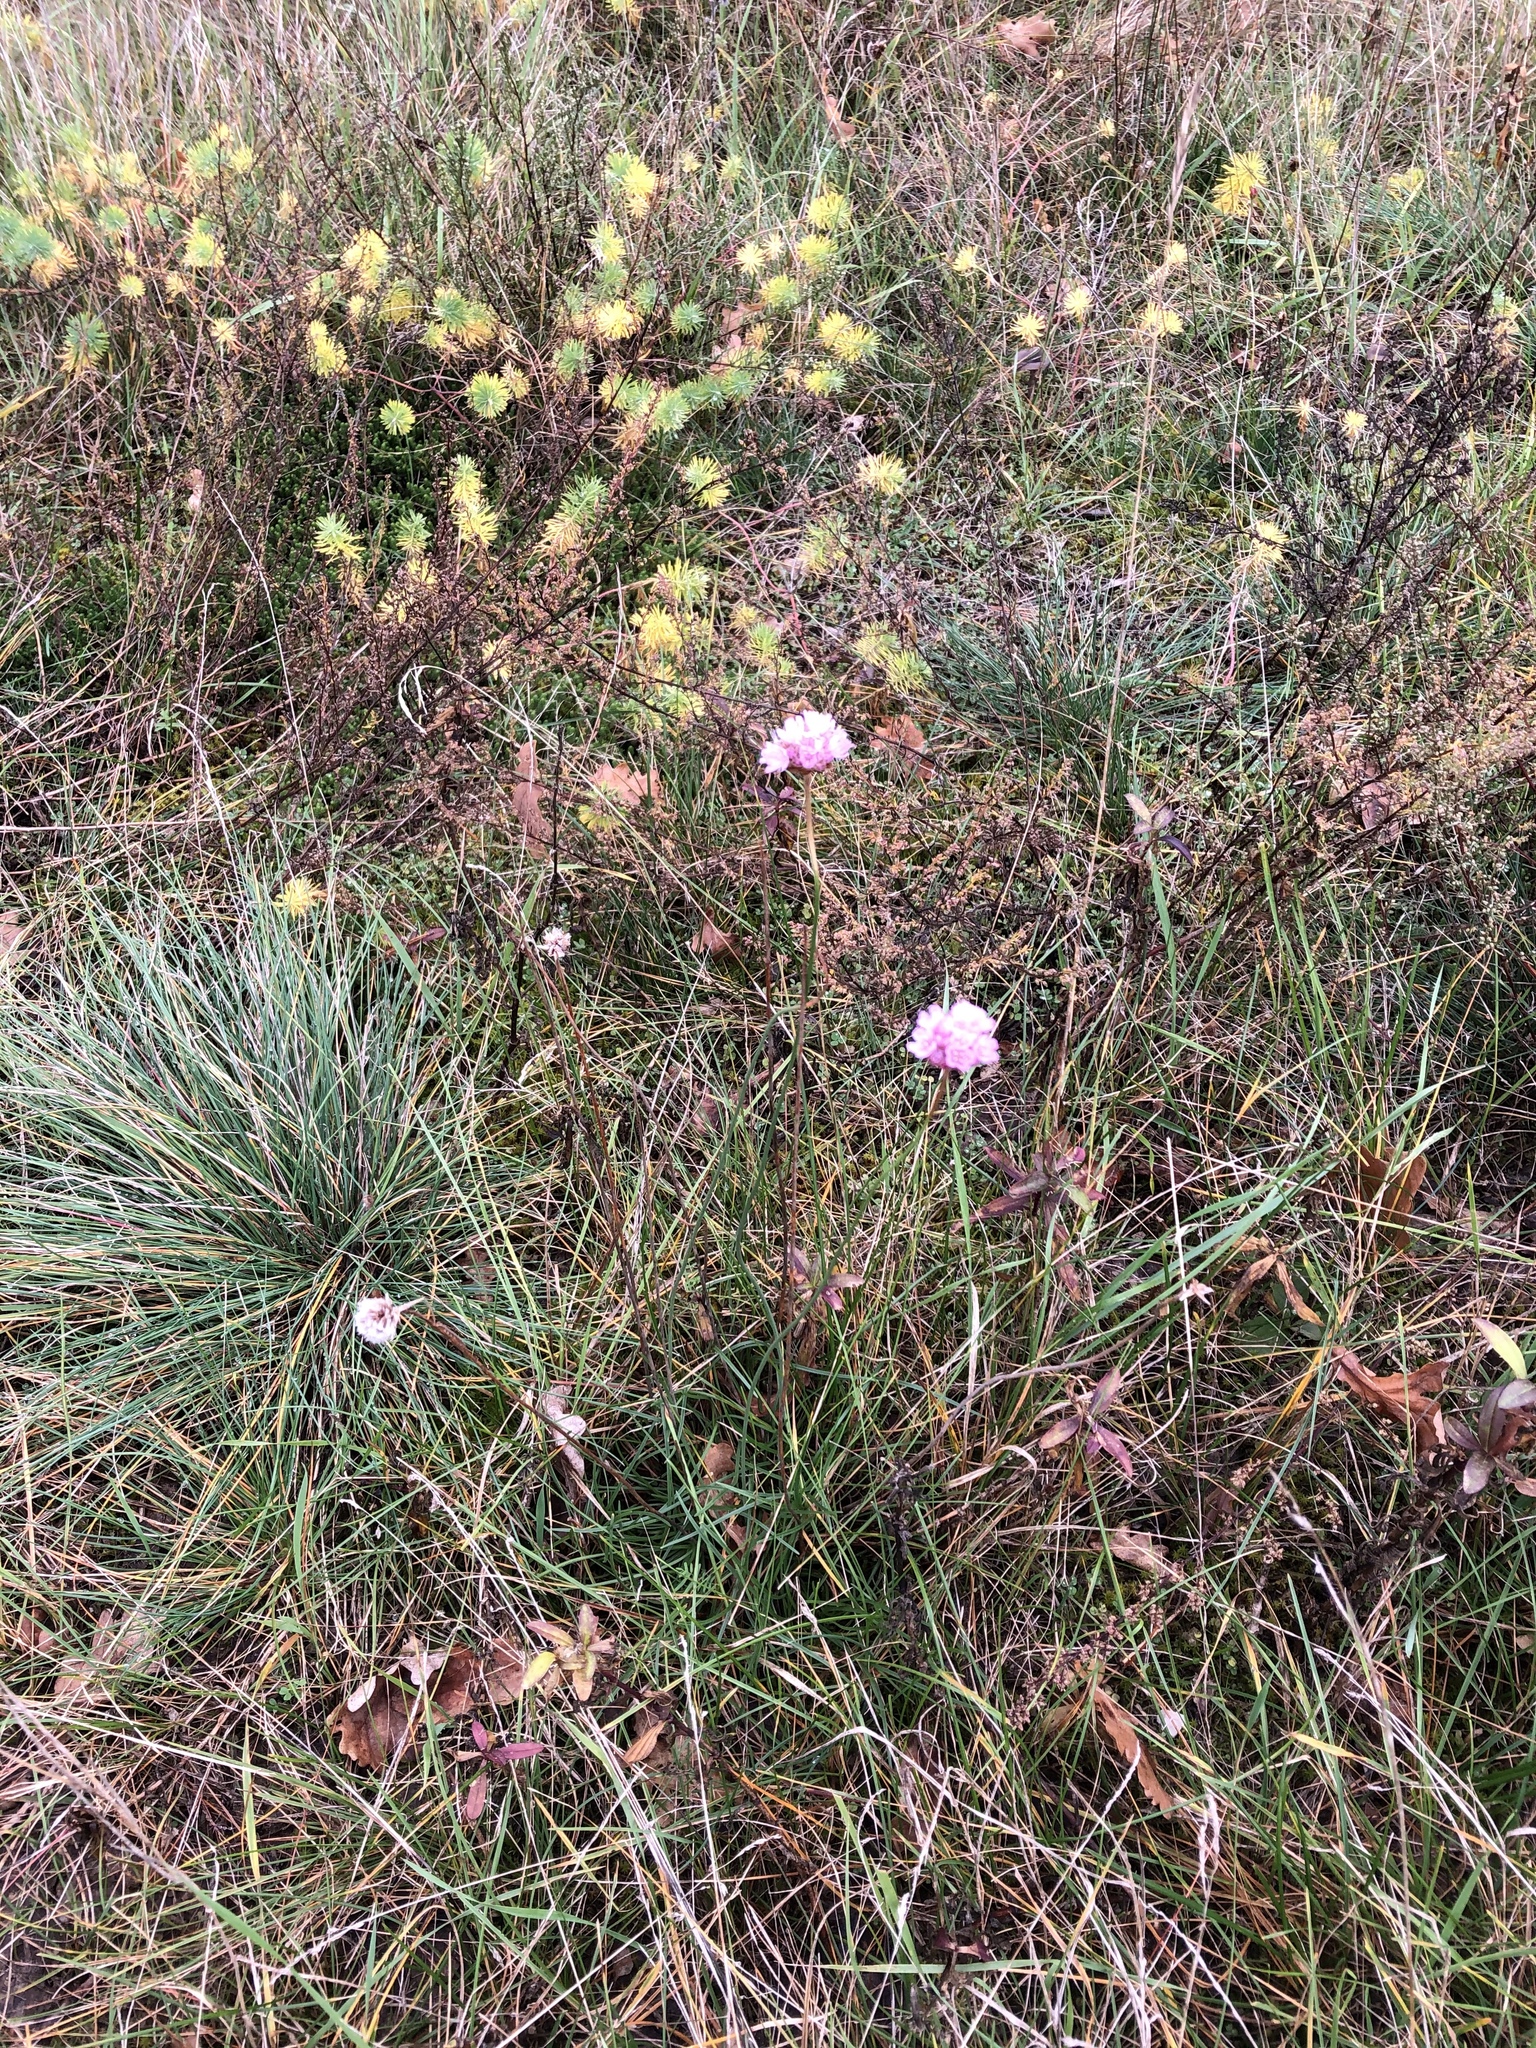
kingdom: Plantae
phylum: Tracheophyta
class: Magnoliopsida
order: Caryophyllales
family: Plumbaginaceae
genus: Armeria
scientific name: Armeria maritima
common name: Thrift
